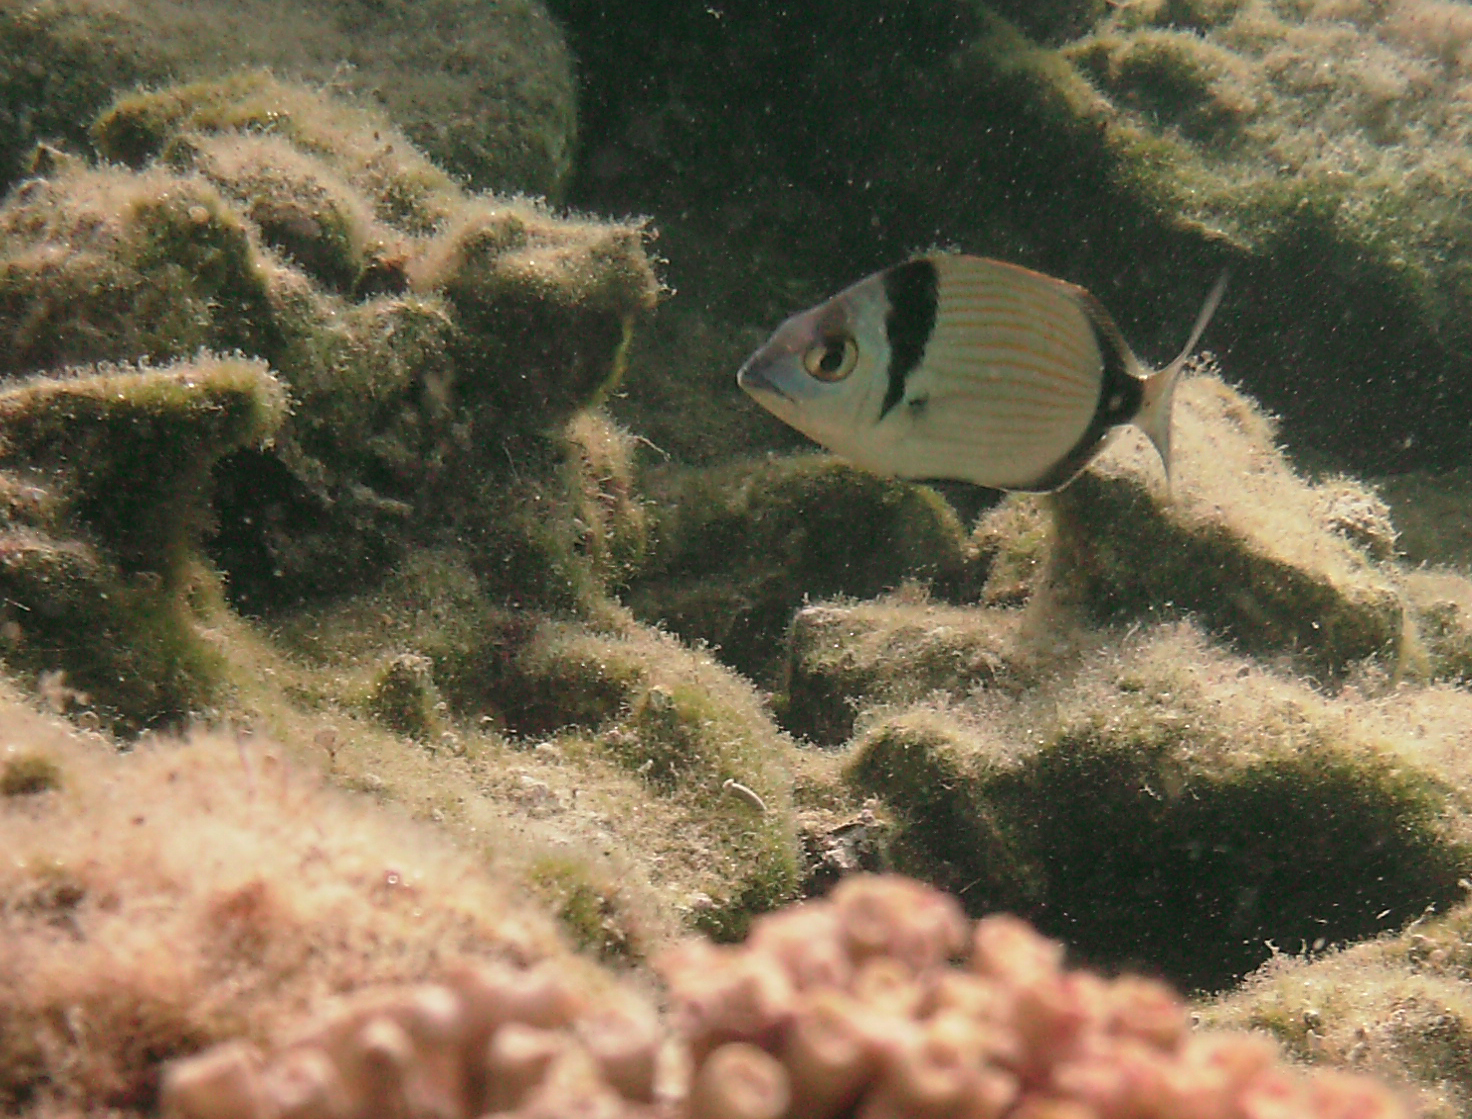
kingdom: Animalia
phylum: Chordata
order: Perciformes
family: Sparidae
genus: Diplodus
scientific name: Diplodus vulgaris
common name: Common two-banded seabream
